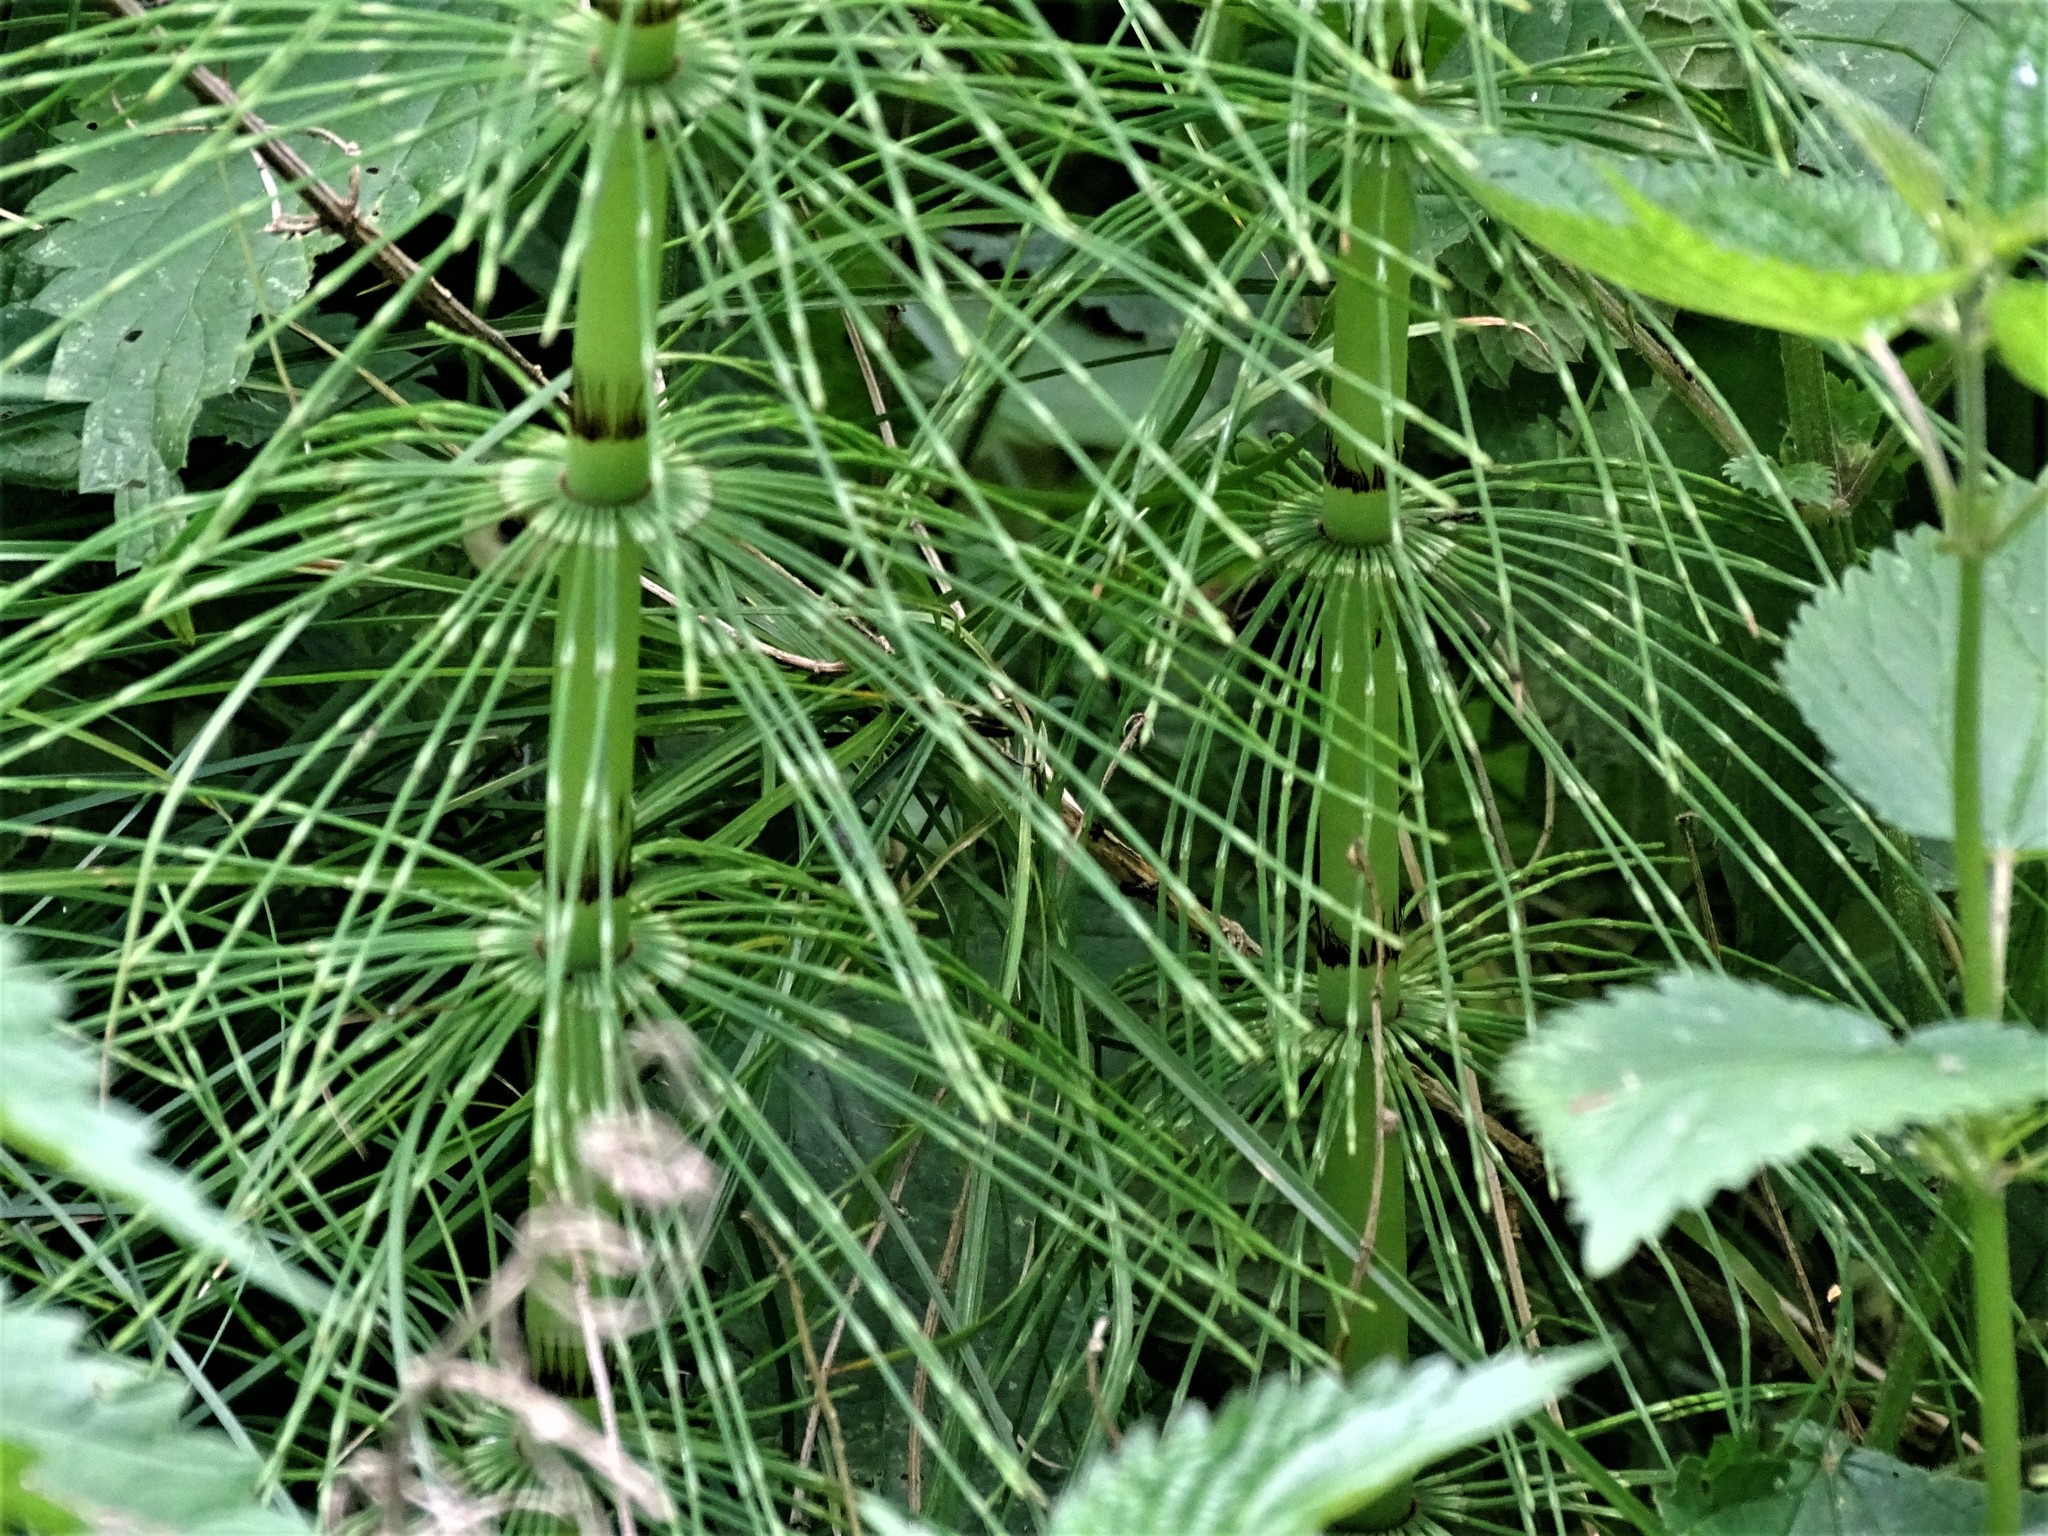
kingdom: Plantae
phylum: Tracheophyta
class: Polypodiopsida
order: Equisetales
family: Equisetaceae
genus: Equisetum
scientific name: Equisetum telmateia
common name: Great horsetail
